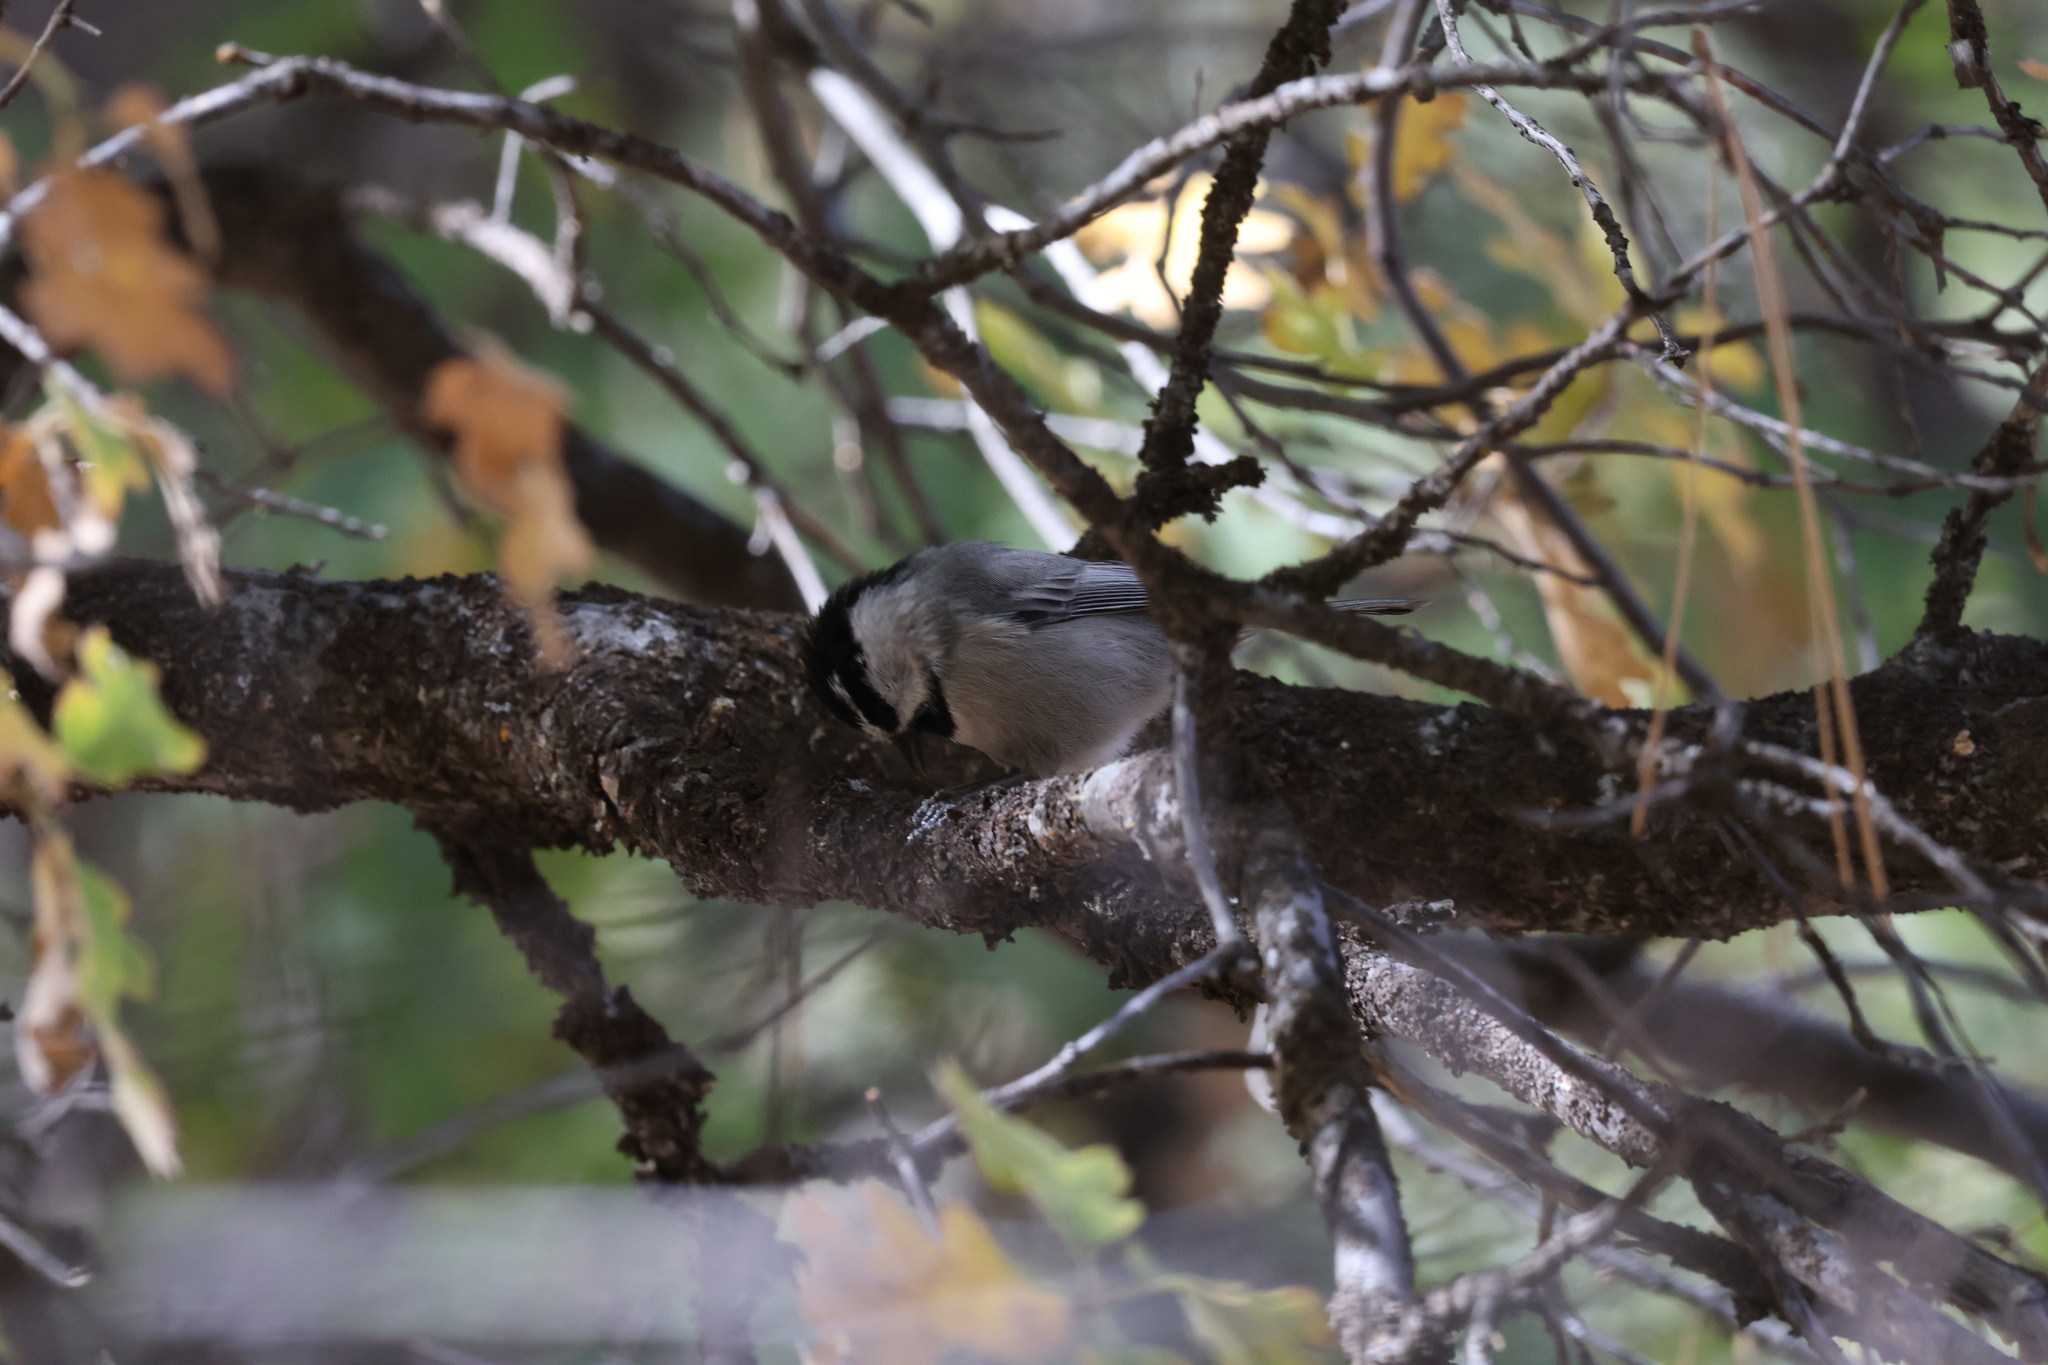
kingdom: Animalia
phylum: Chordata
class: Aves
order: Passeriformes
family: Paridae
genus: Poecile
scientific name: Poecile gambeli
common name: Mountain chickadee
